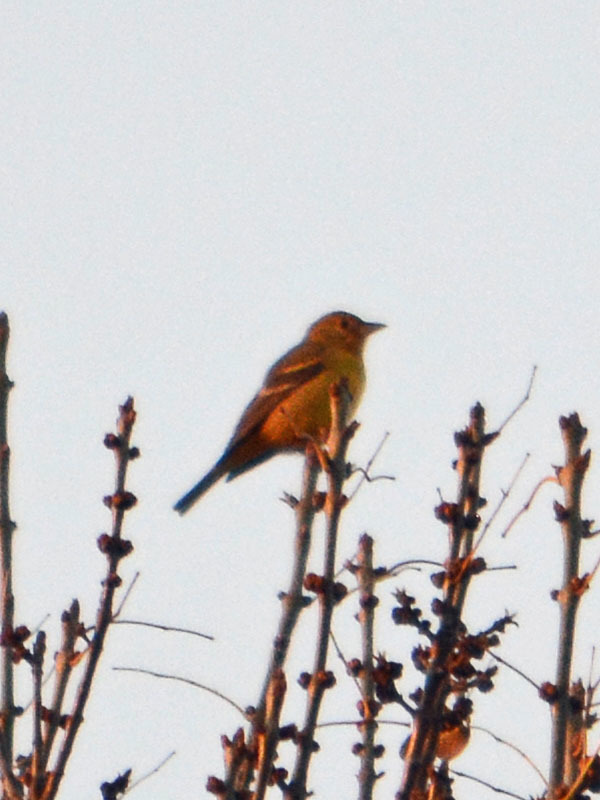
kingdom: Animalia
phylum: Chordata
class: Aves
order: Passeriformes
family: Cardinalidae
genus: Piranga
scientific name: Piranga ludoviciana
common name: Western tanager
